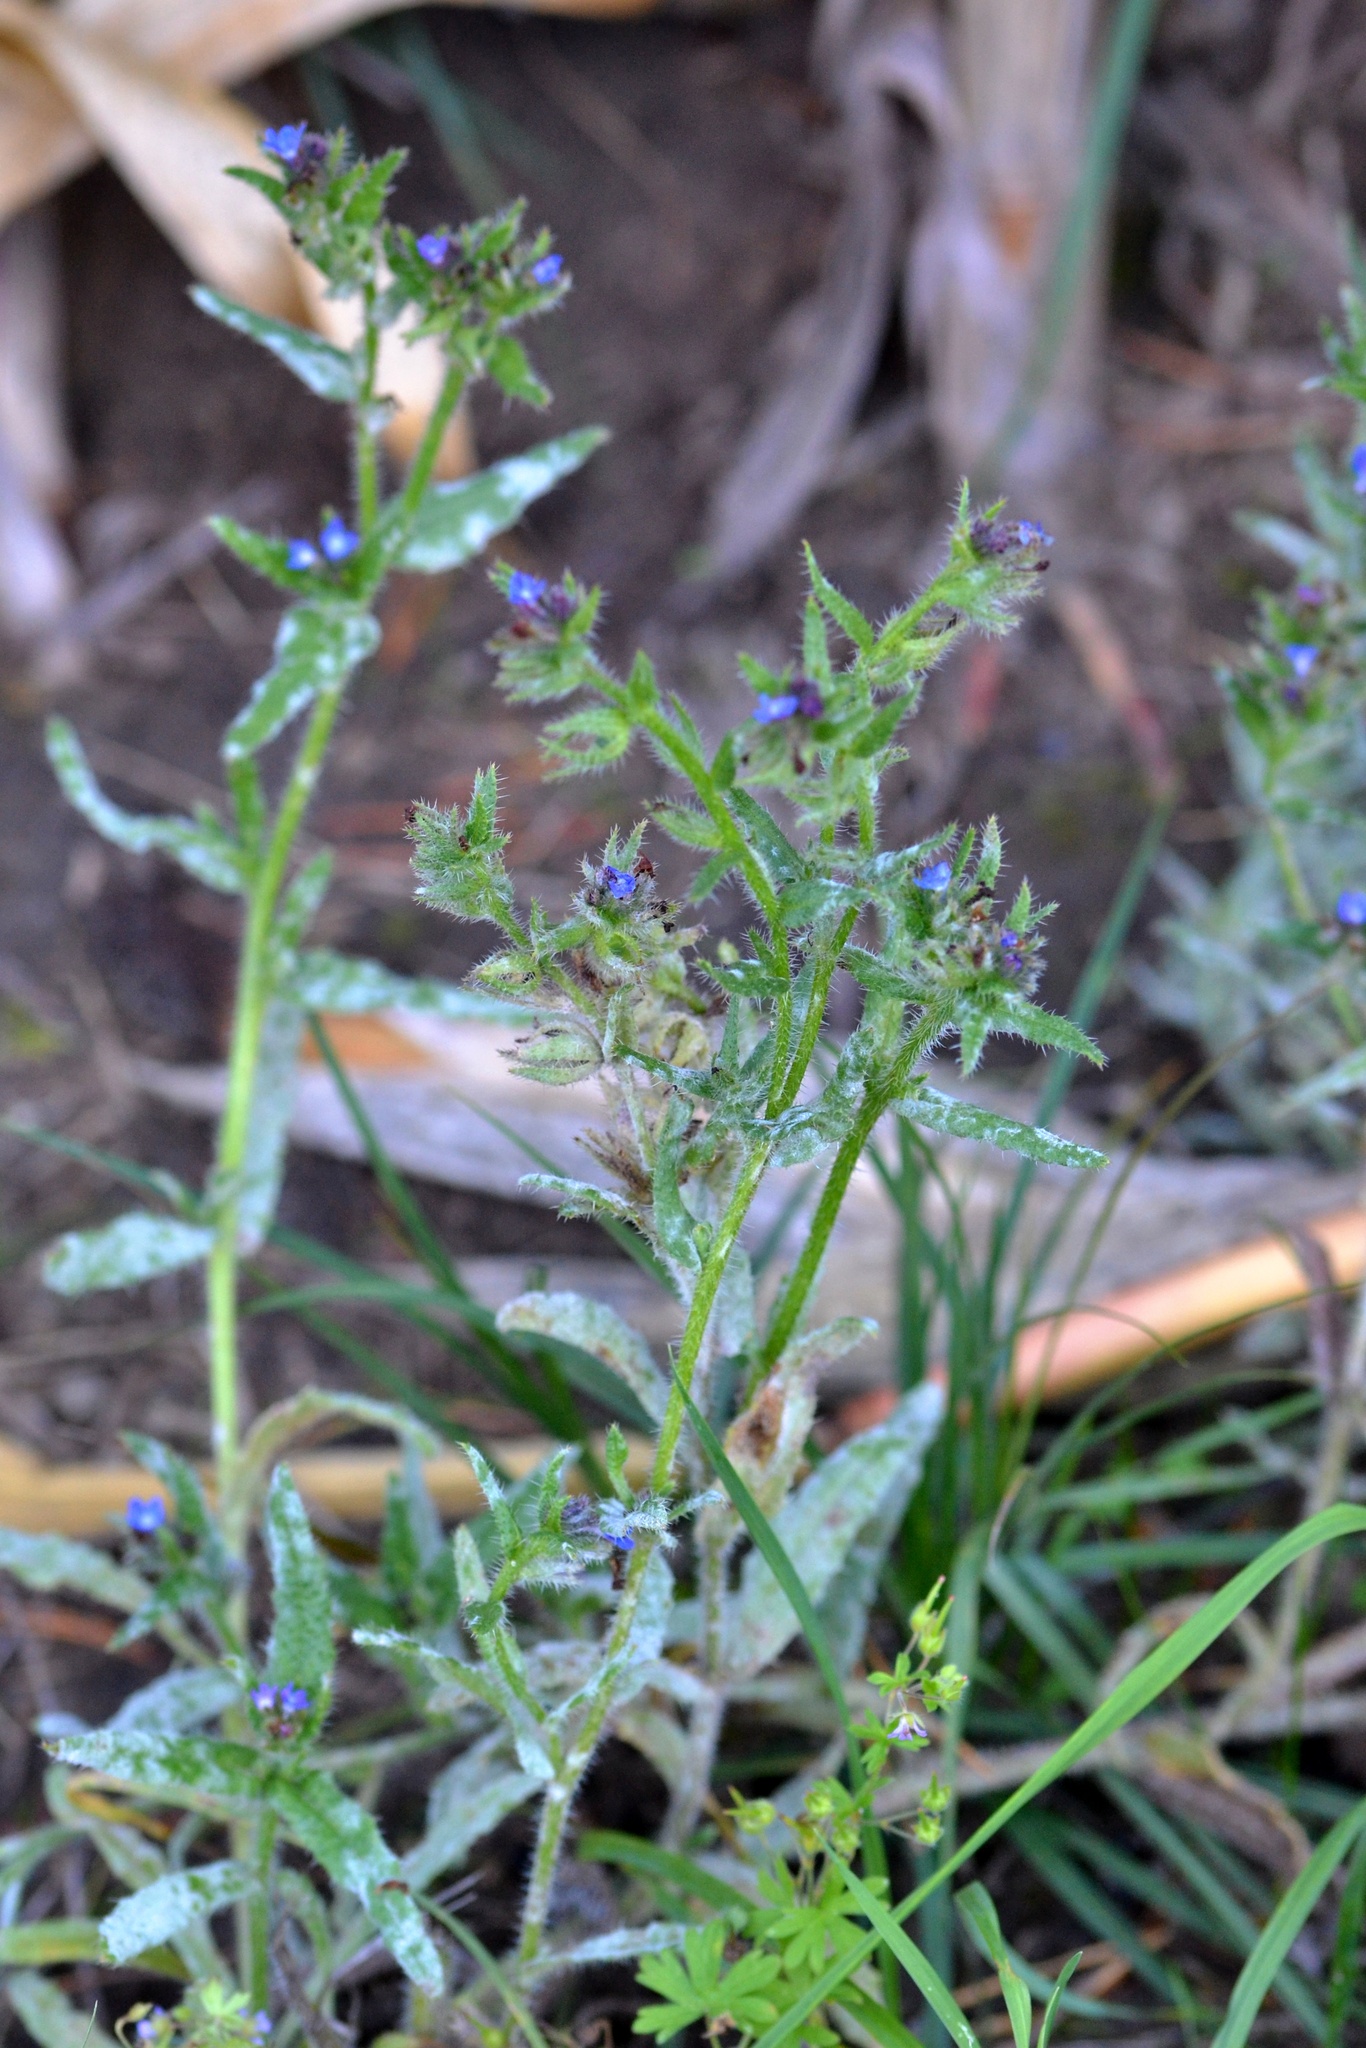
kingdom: Plantae
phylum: Tracheophyta
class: Magnoliopsida
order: Boraginales
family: Boraginaceae
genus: Lycopsis
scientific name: Lycopsis arvensis
